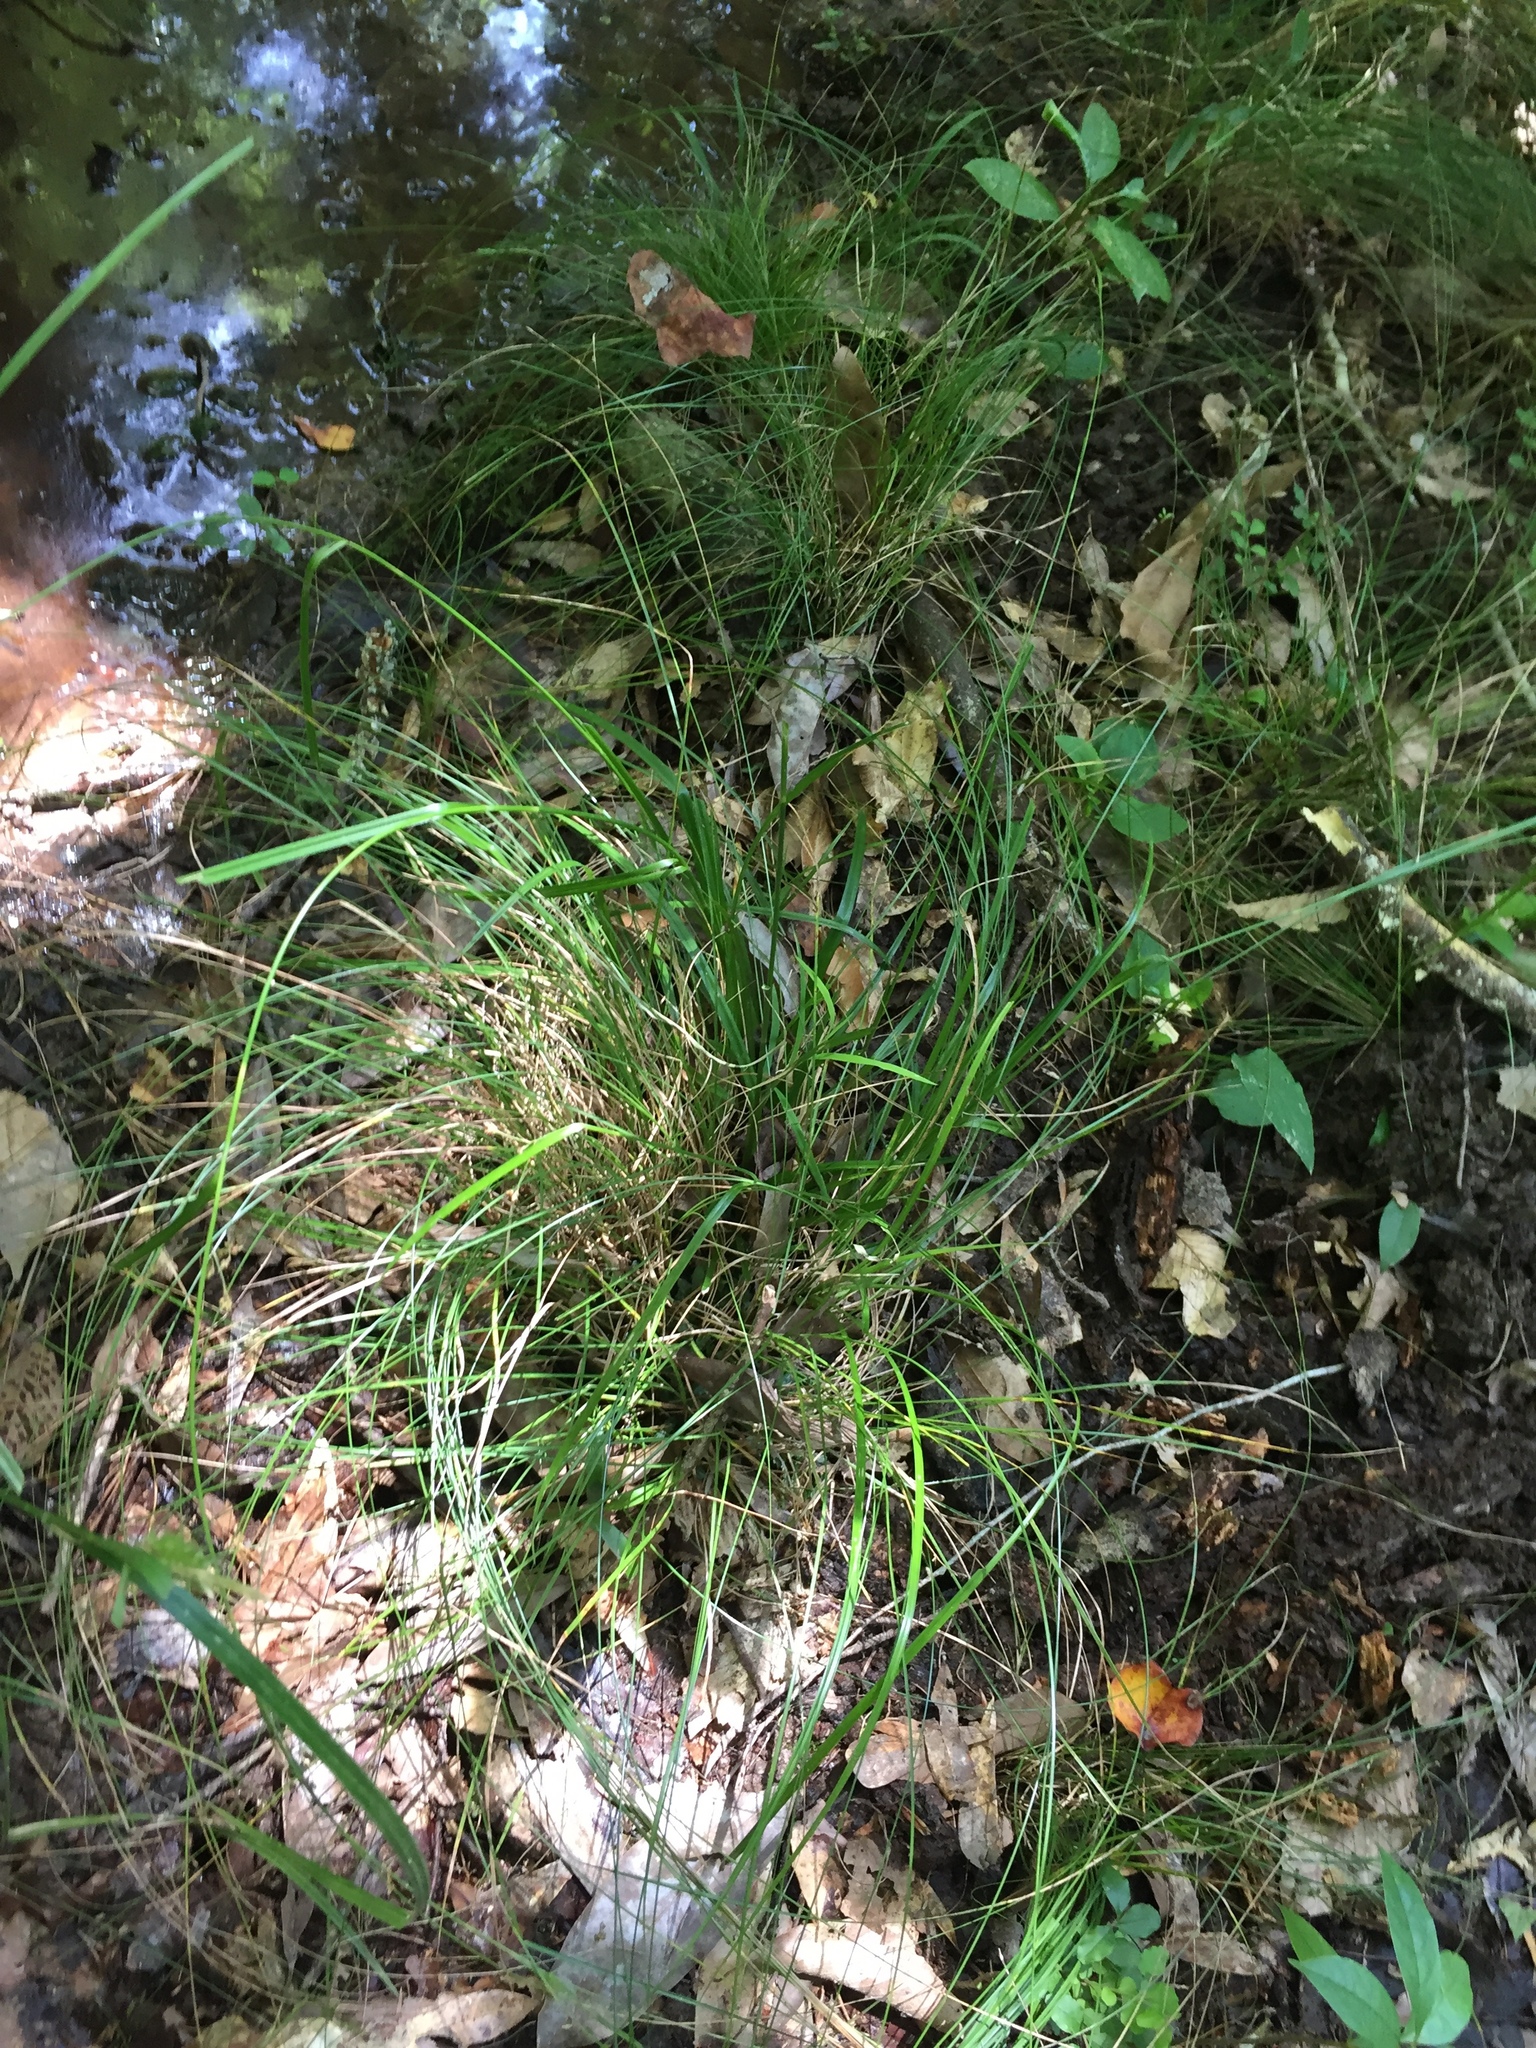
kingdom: Plantae
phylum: Tracheophyta
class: Liliopsida
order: Poales
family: Cyperaceae
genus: Rhynchospora
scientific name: Rhynchospora mixta
